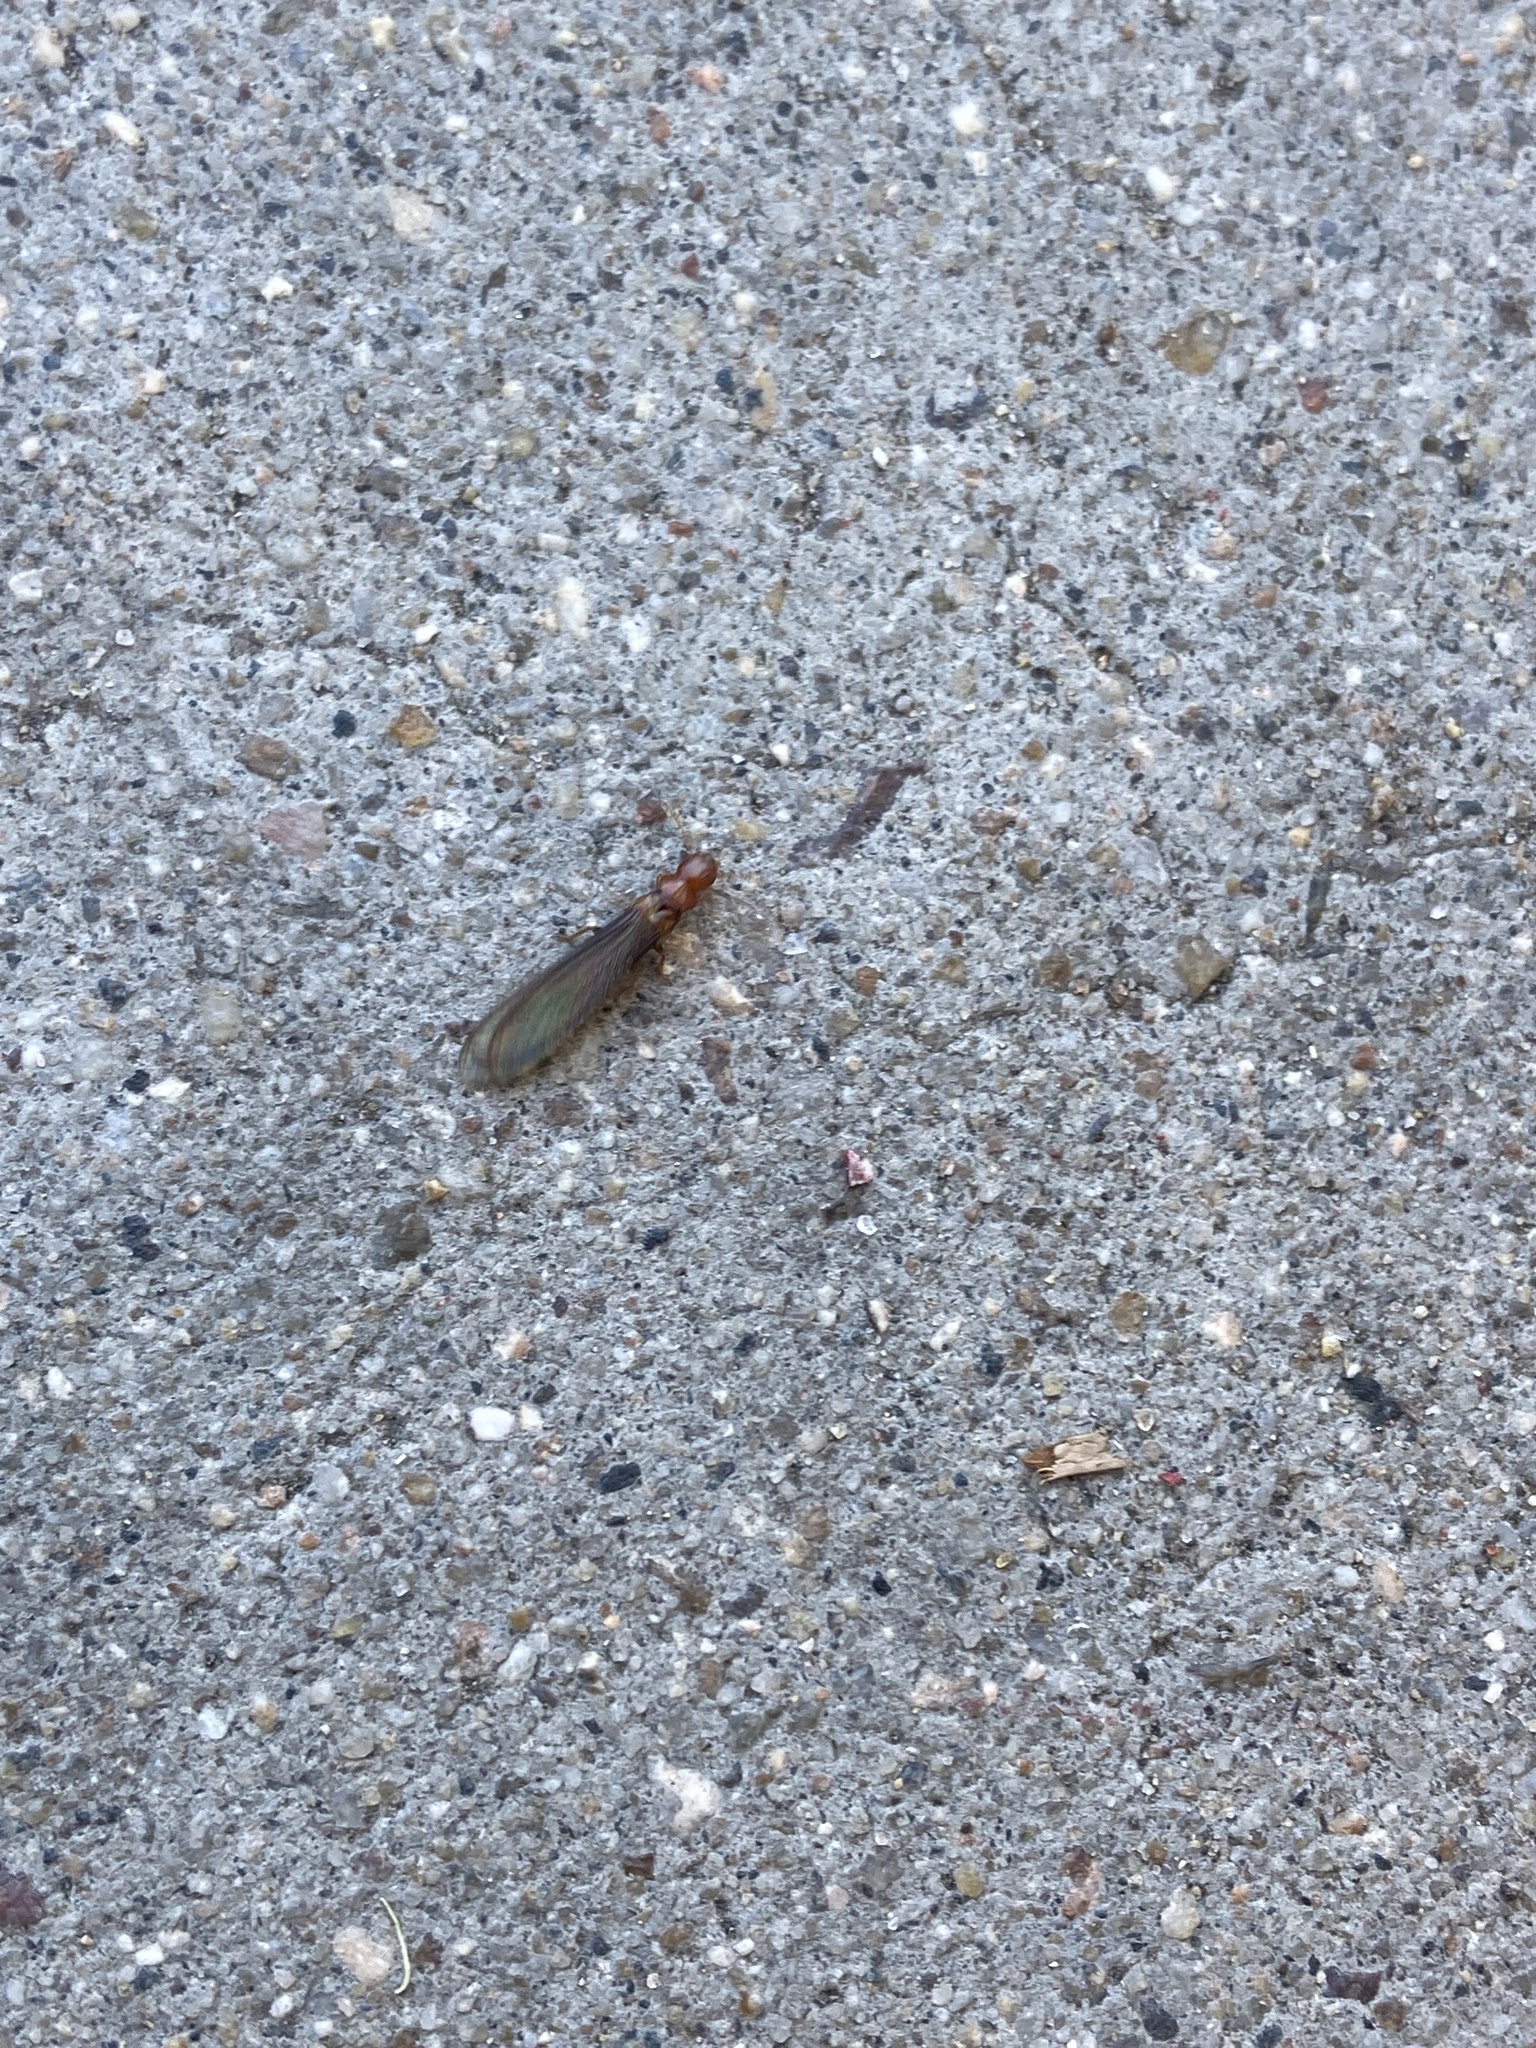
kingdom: Animalia
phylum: Arthropoda
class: Insecta
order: Blattodea
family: Kalotermitidae
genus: Incisitermes
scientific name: Incisitermes minor
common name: Termite
